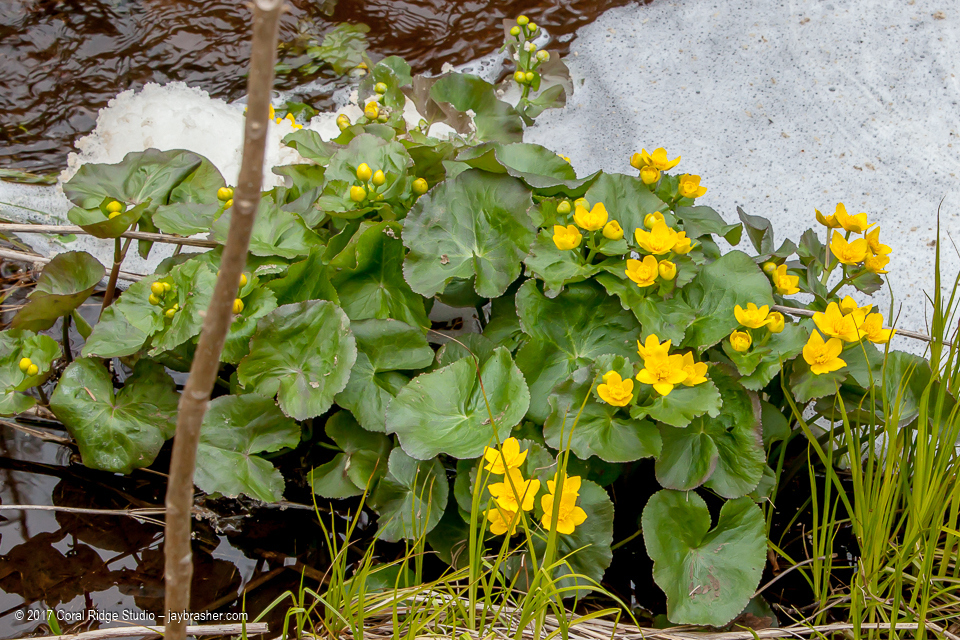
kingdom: Plantae
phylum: Tracheophyta
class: Magnoliopsida
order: Ranunculales
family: Ranunculaceae
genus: Caltha
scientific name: Caltha palustris
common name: Marsh marigold
